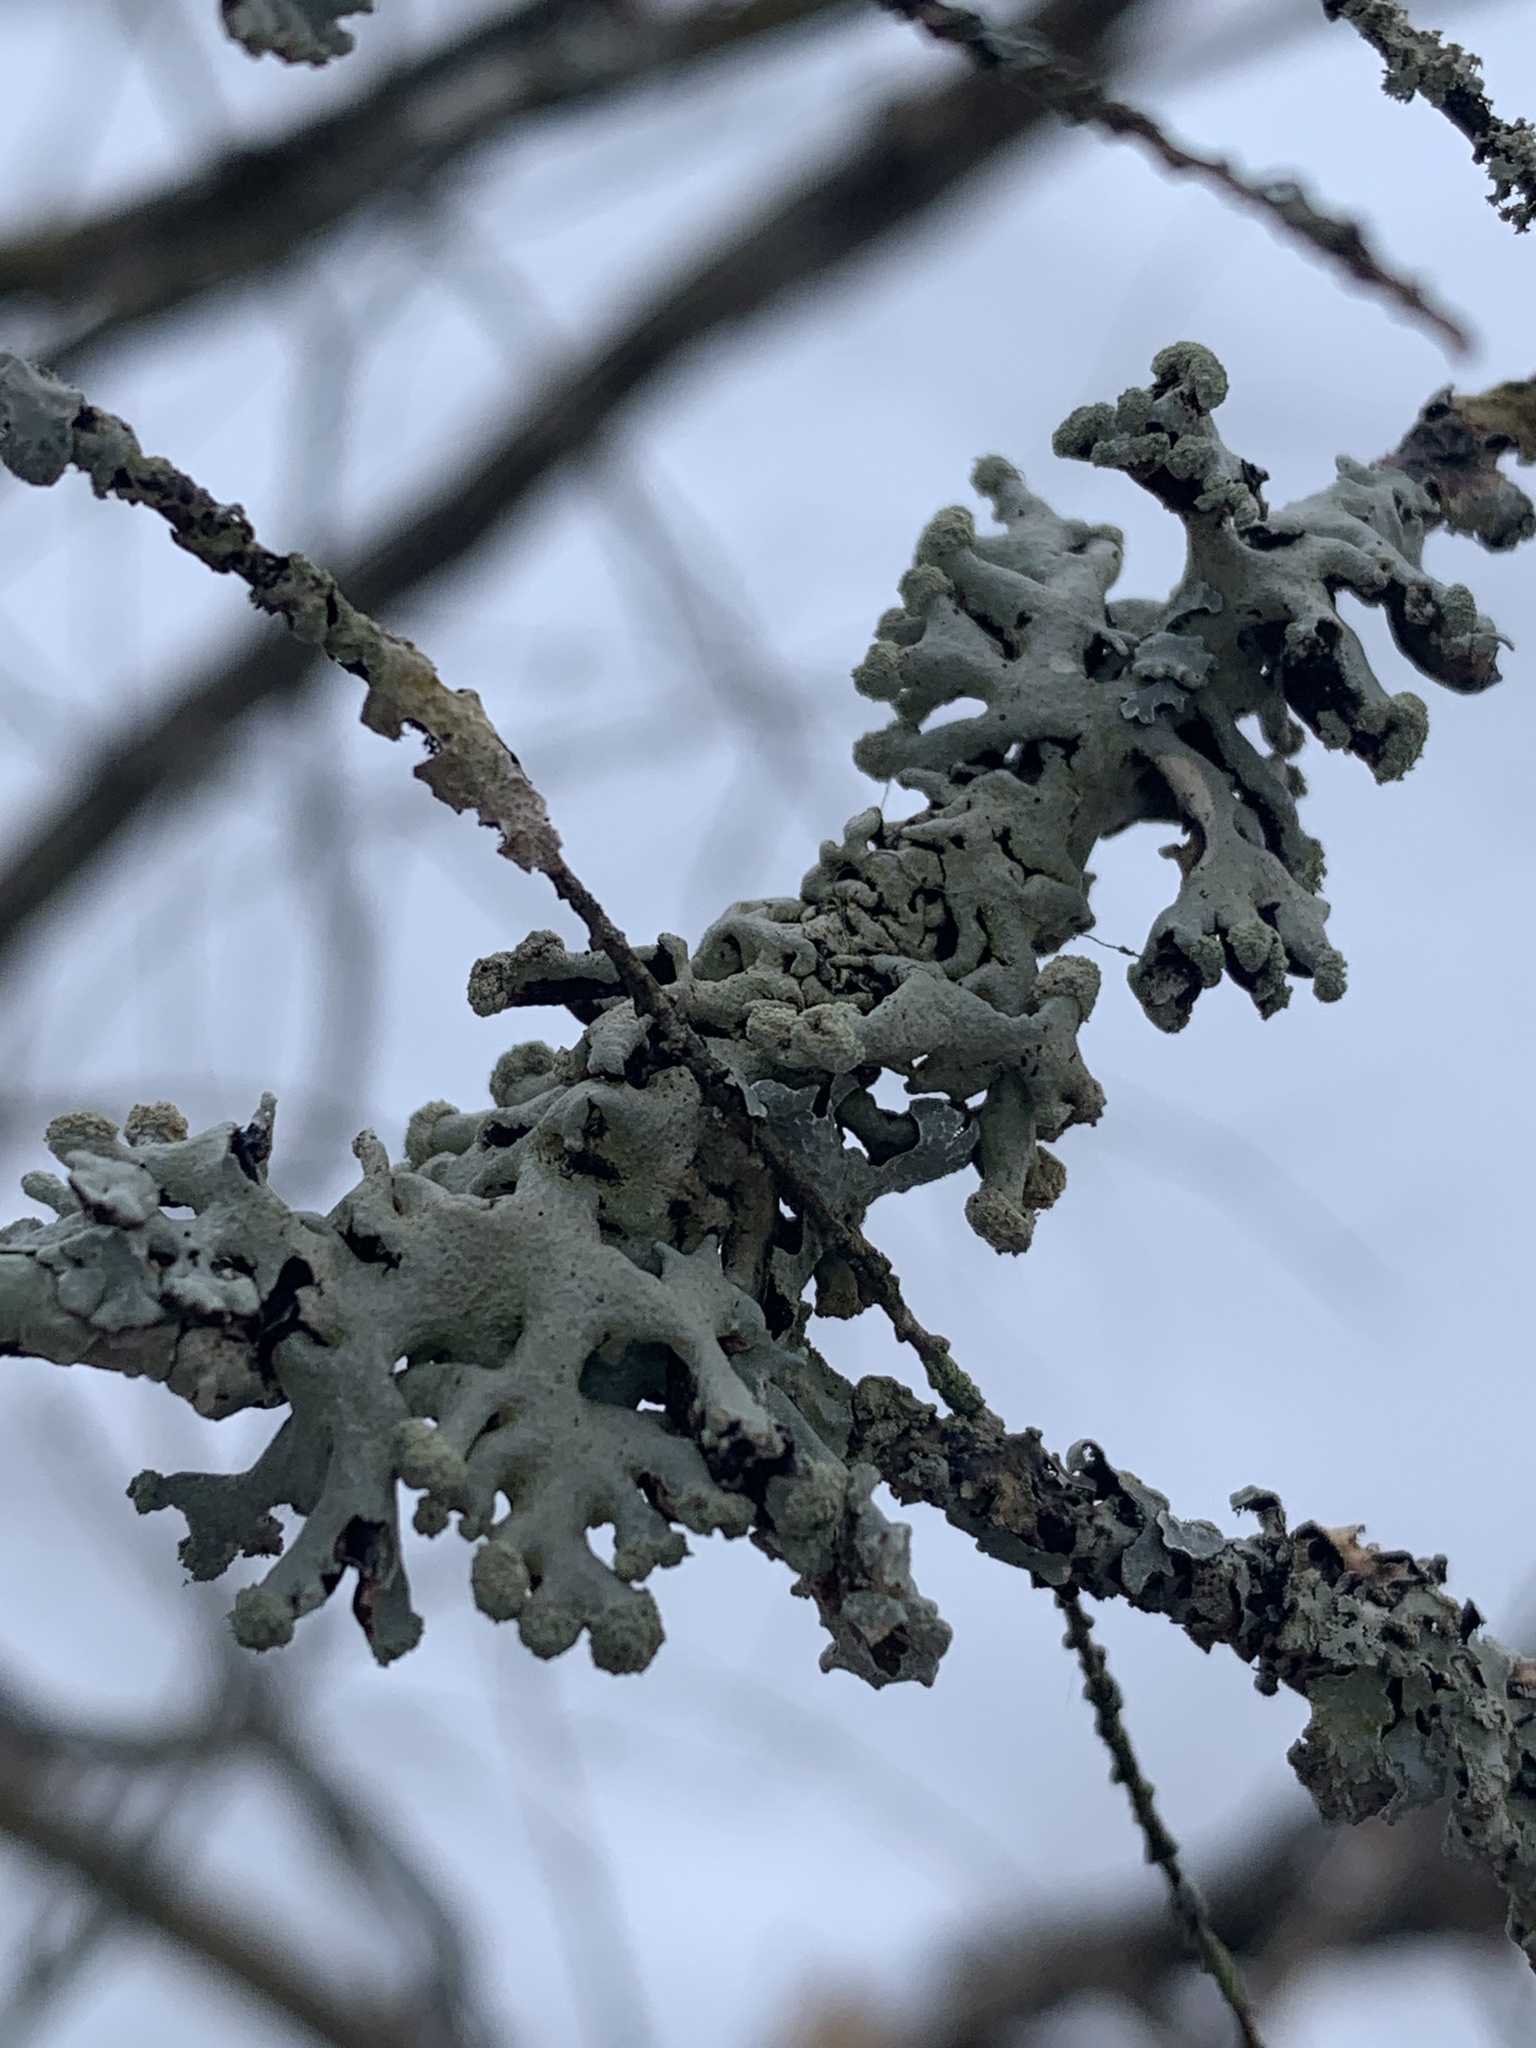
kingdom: Fungi
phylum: Ascomycota
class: Lecanoromycetes
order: Lecanorales
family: Parmeliaceae
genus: Hypogymnia
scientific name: Hypogymnia tubulosa
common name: Powder-headed tube lichen
